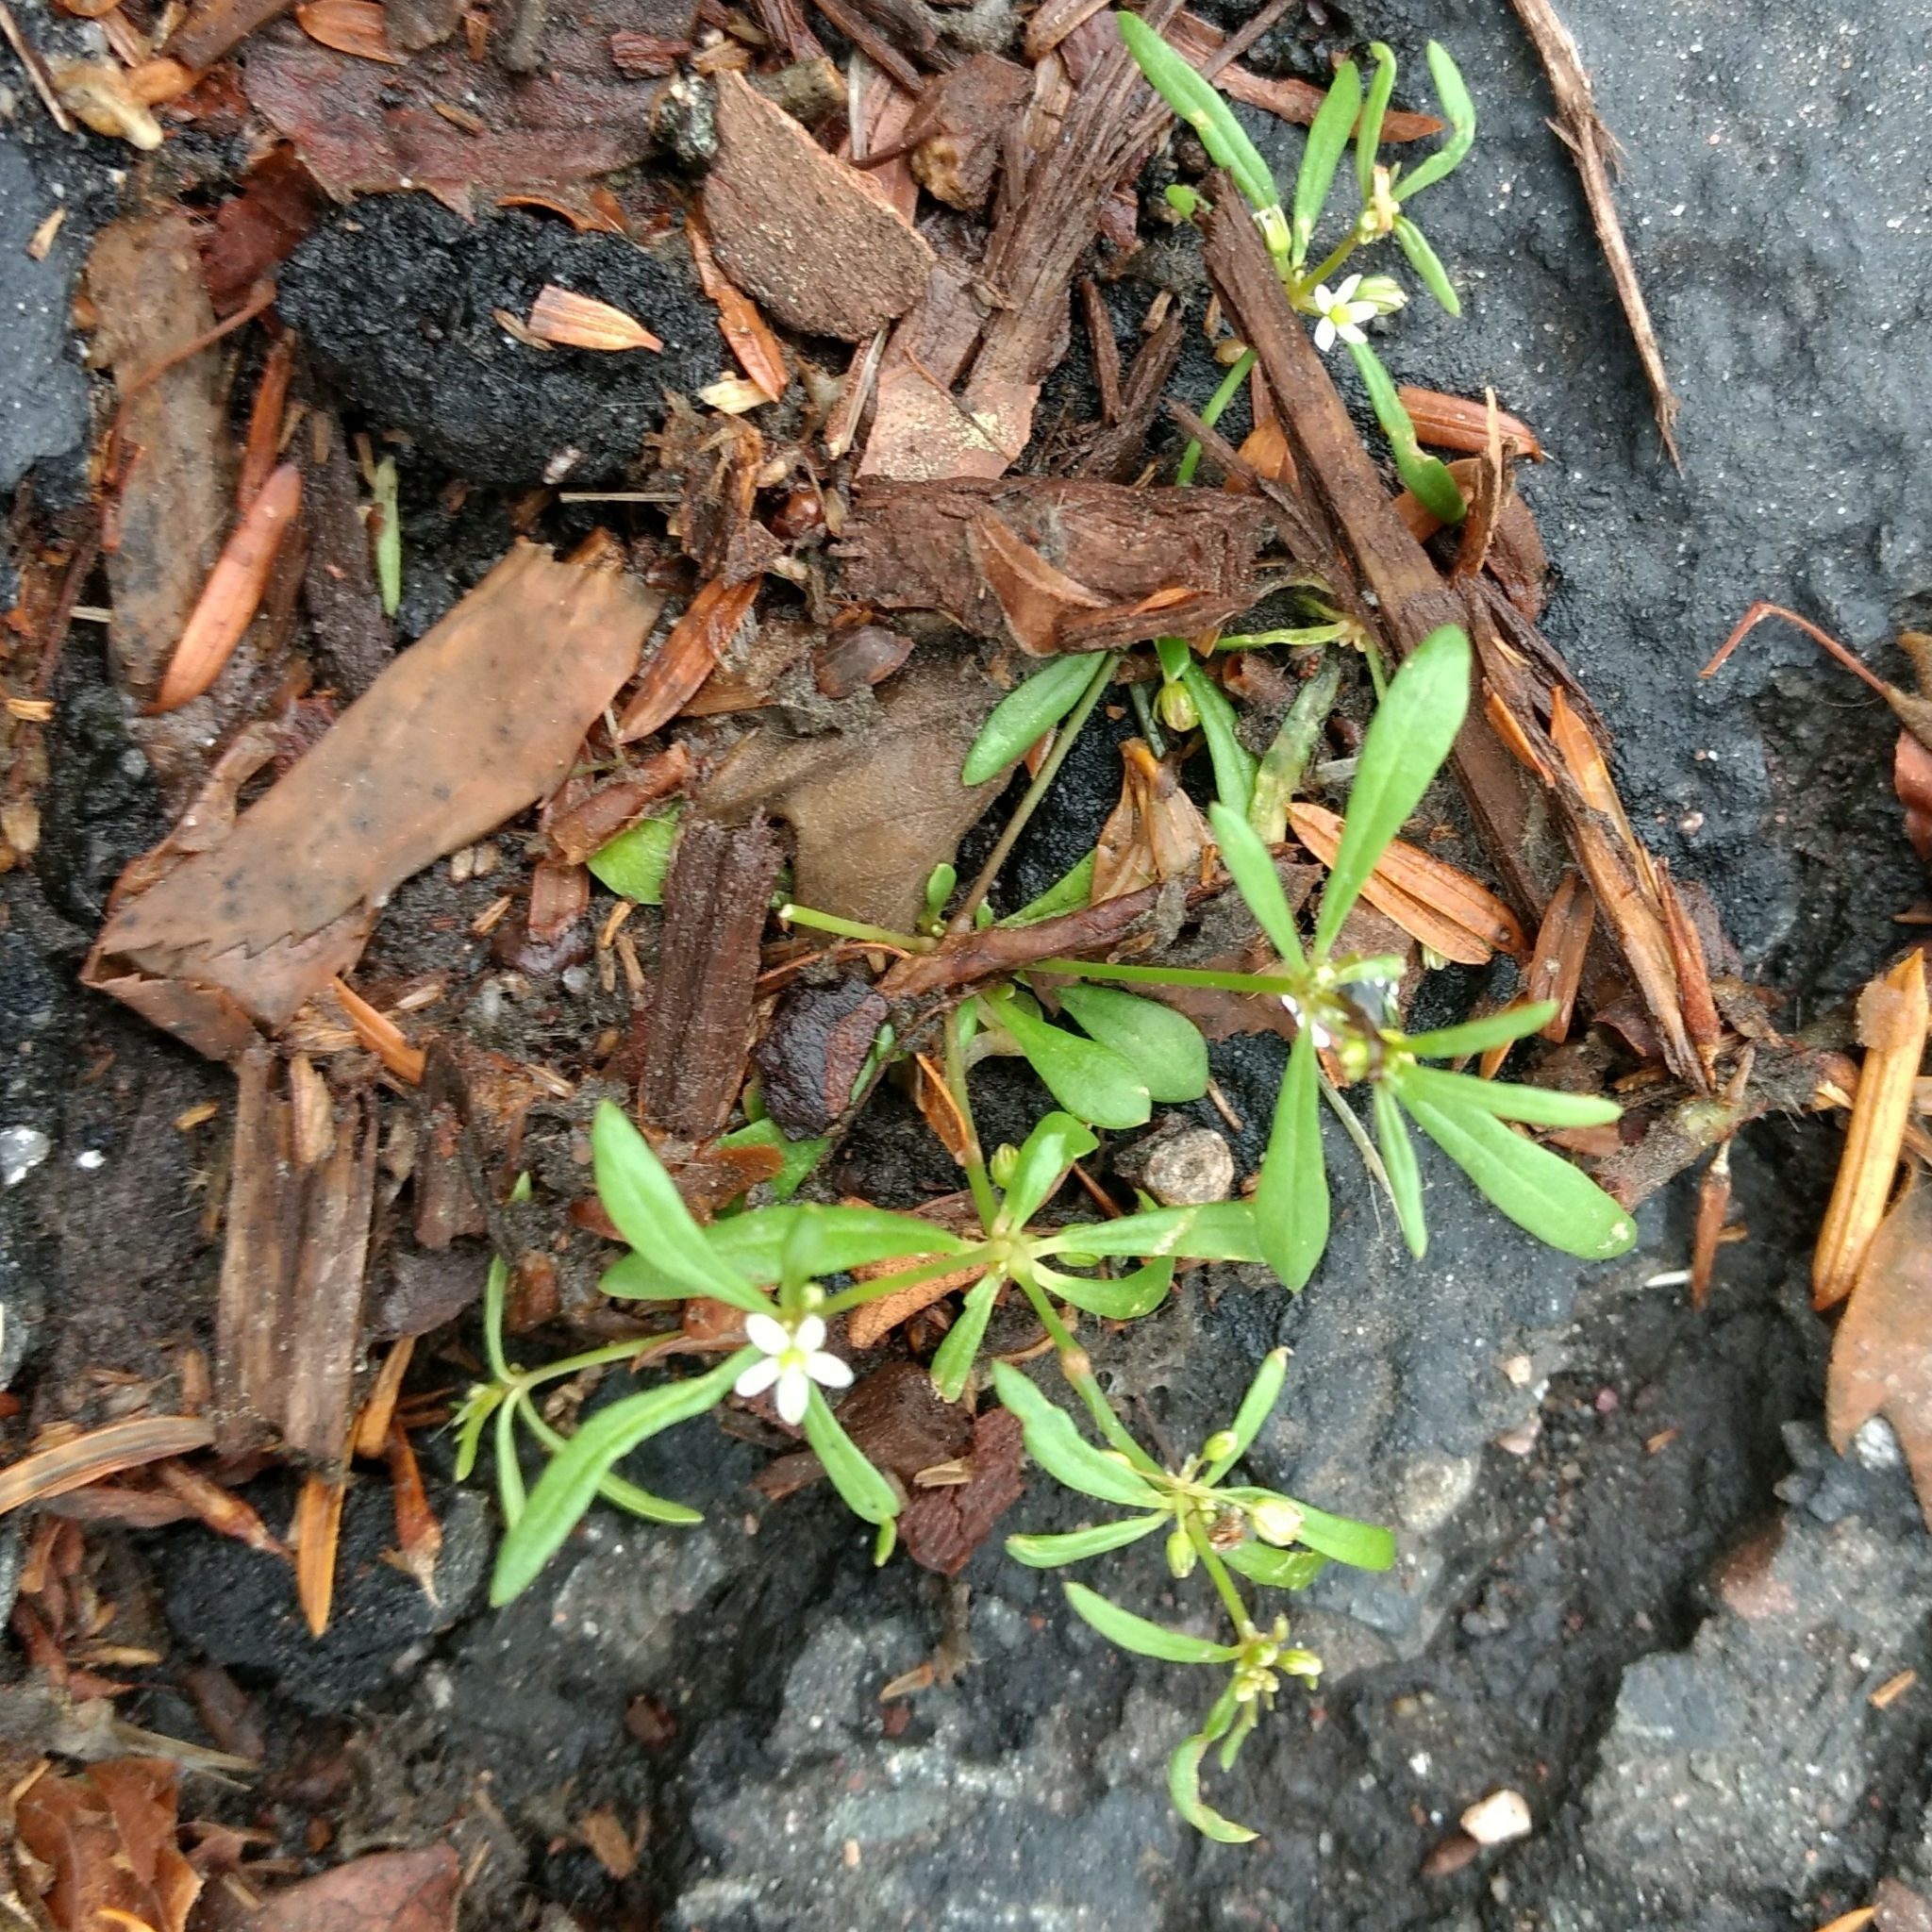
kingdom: Plantae
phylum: Tracheophyta
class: Magnoliopsida
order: Caryophyllales
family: Molluginaceae
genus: Mollugo
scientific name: Mollugo verticillata
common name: Green carpetweed
